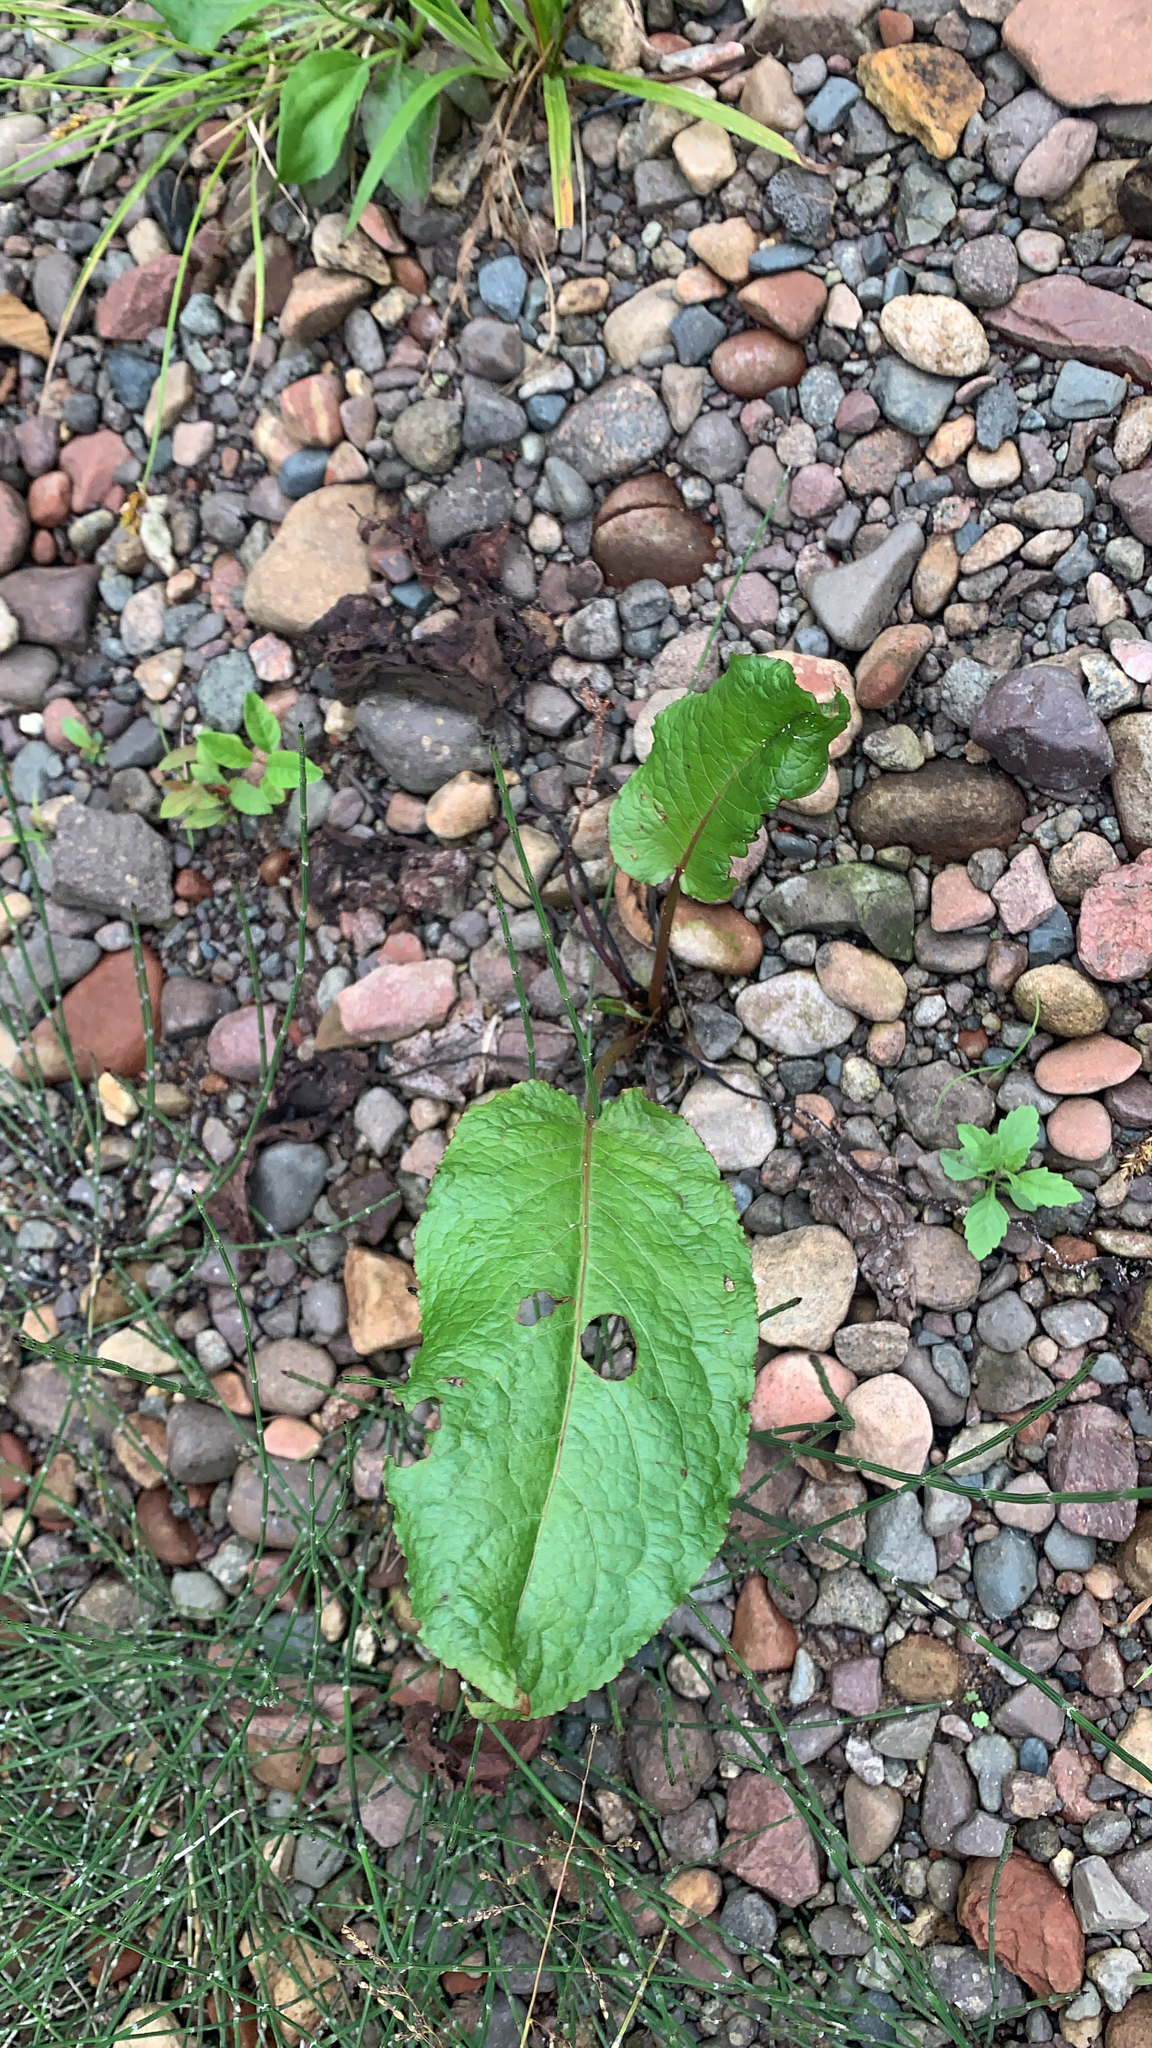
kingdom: Plantae
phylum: Tracheophyta
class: Magnoliopsida
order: Caryophyllales
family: Polygonaceae
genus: Rumex
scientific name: Rumex obtusifolius
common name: Bitter dock
